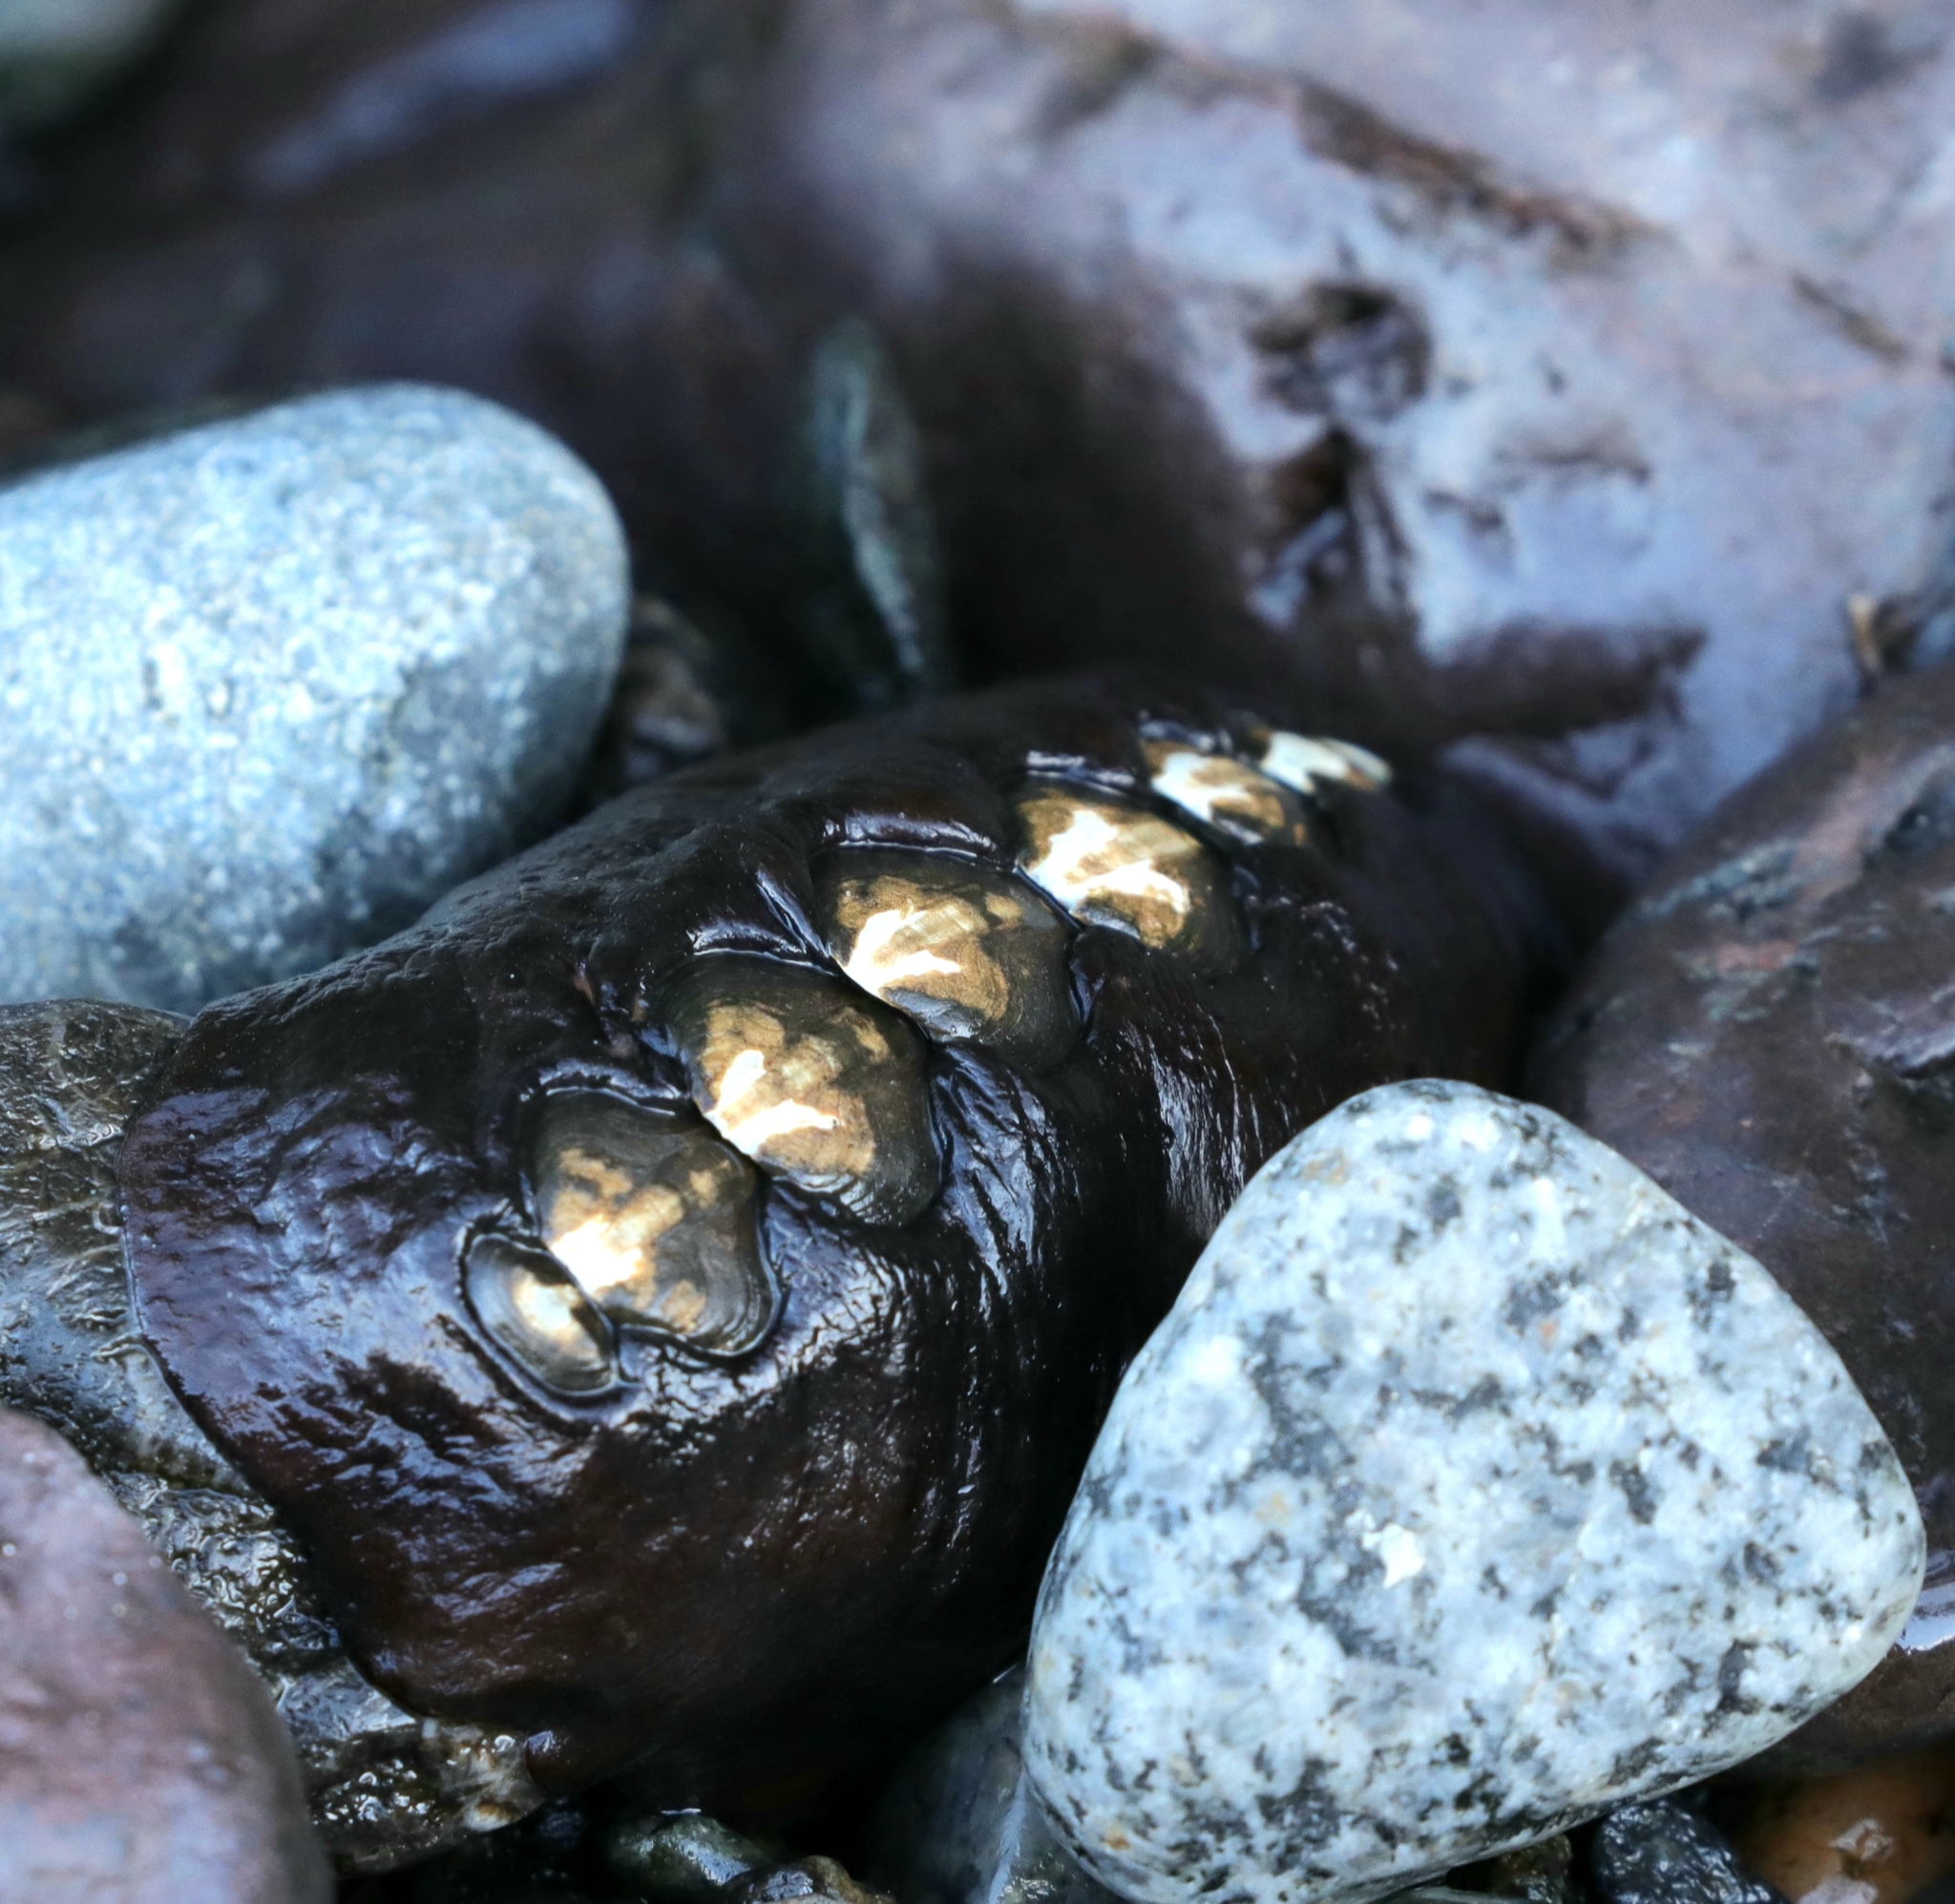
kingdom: Animalia
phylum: Mollusca
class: Polyplacophora
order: Chitonida
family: Mopaliidae
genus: Katharina
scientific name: Katharina tunicata
